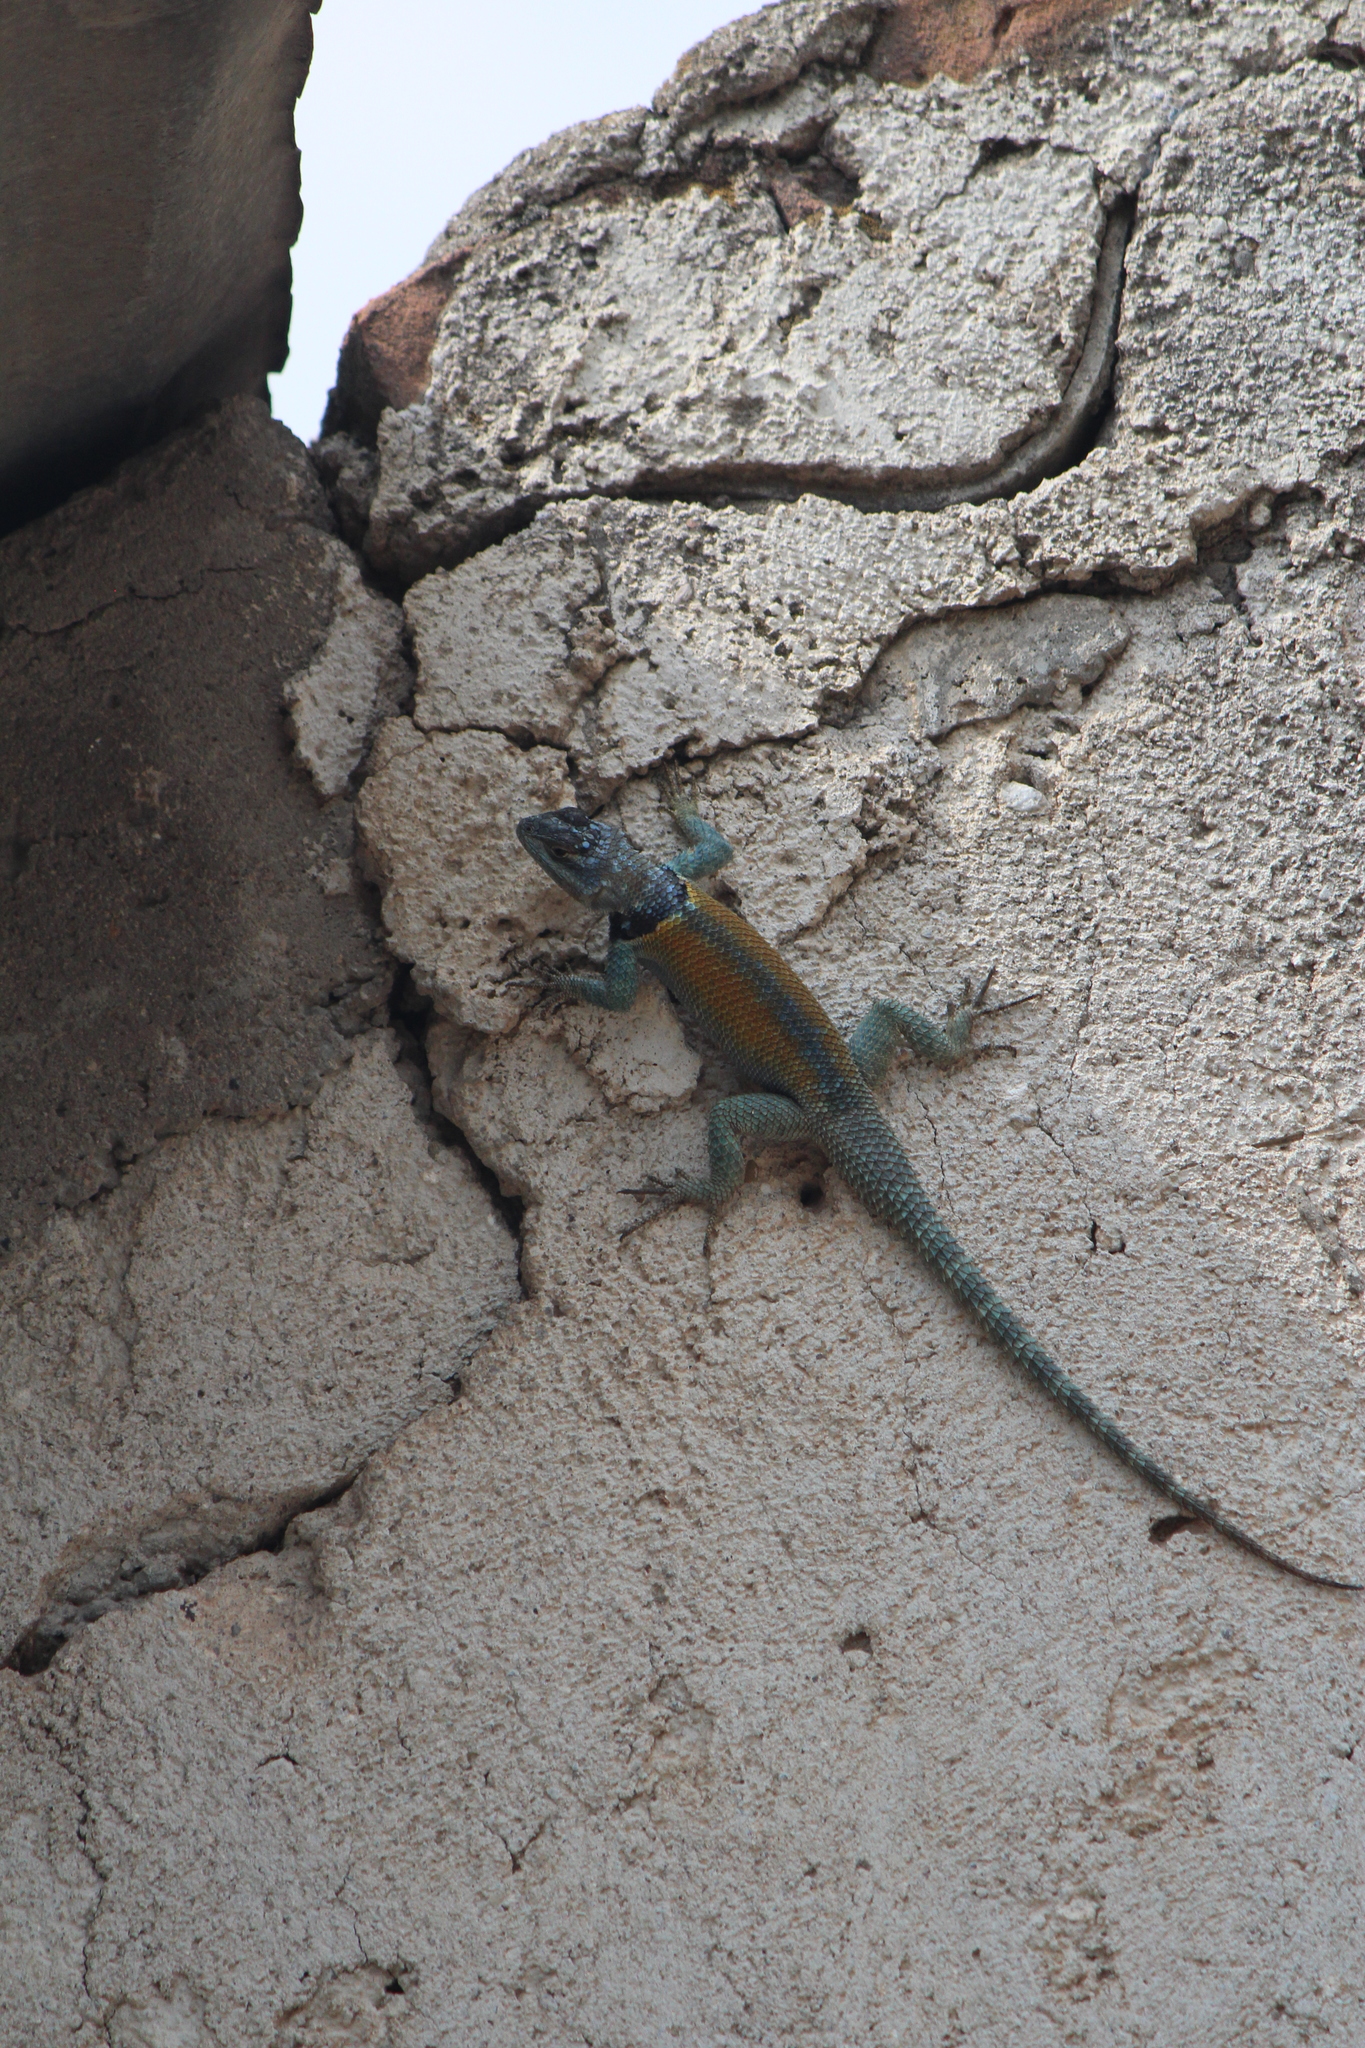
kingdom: Animalia
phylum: Chordata
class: Squamata
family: Phrynosomatidae
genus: Sceloporus
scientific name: Sceloporus minor
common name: Minor lizard
